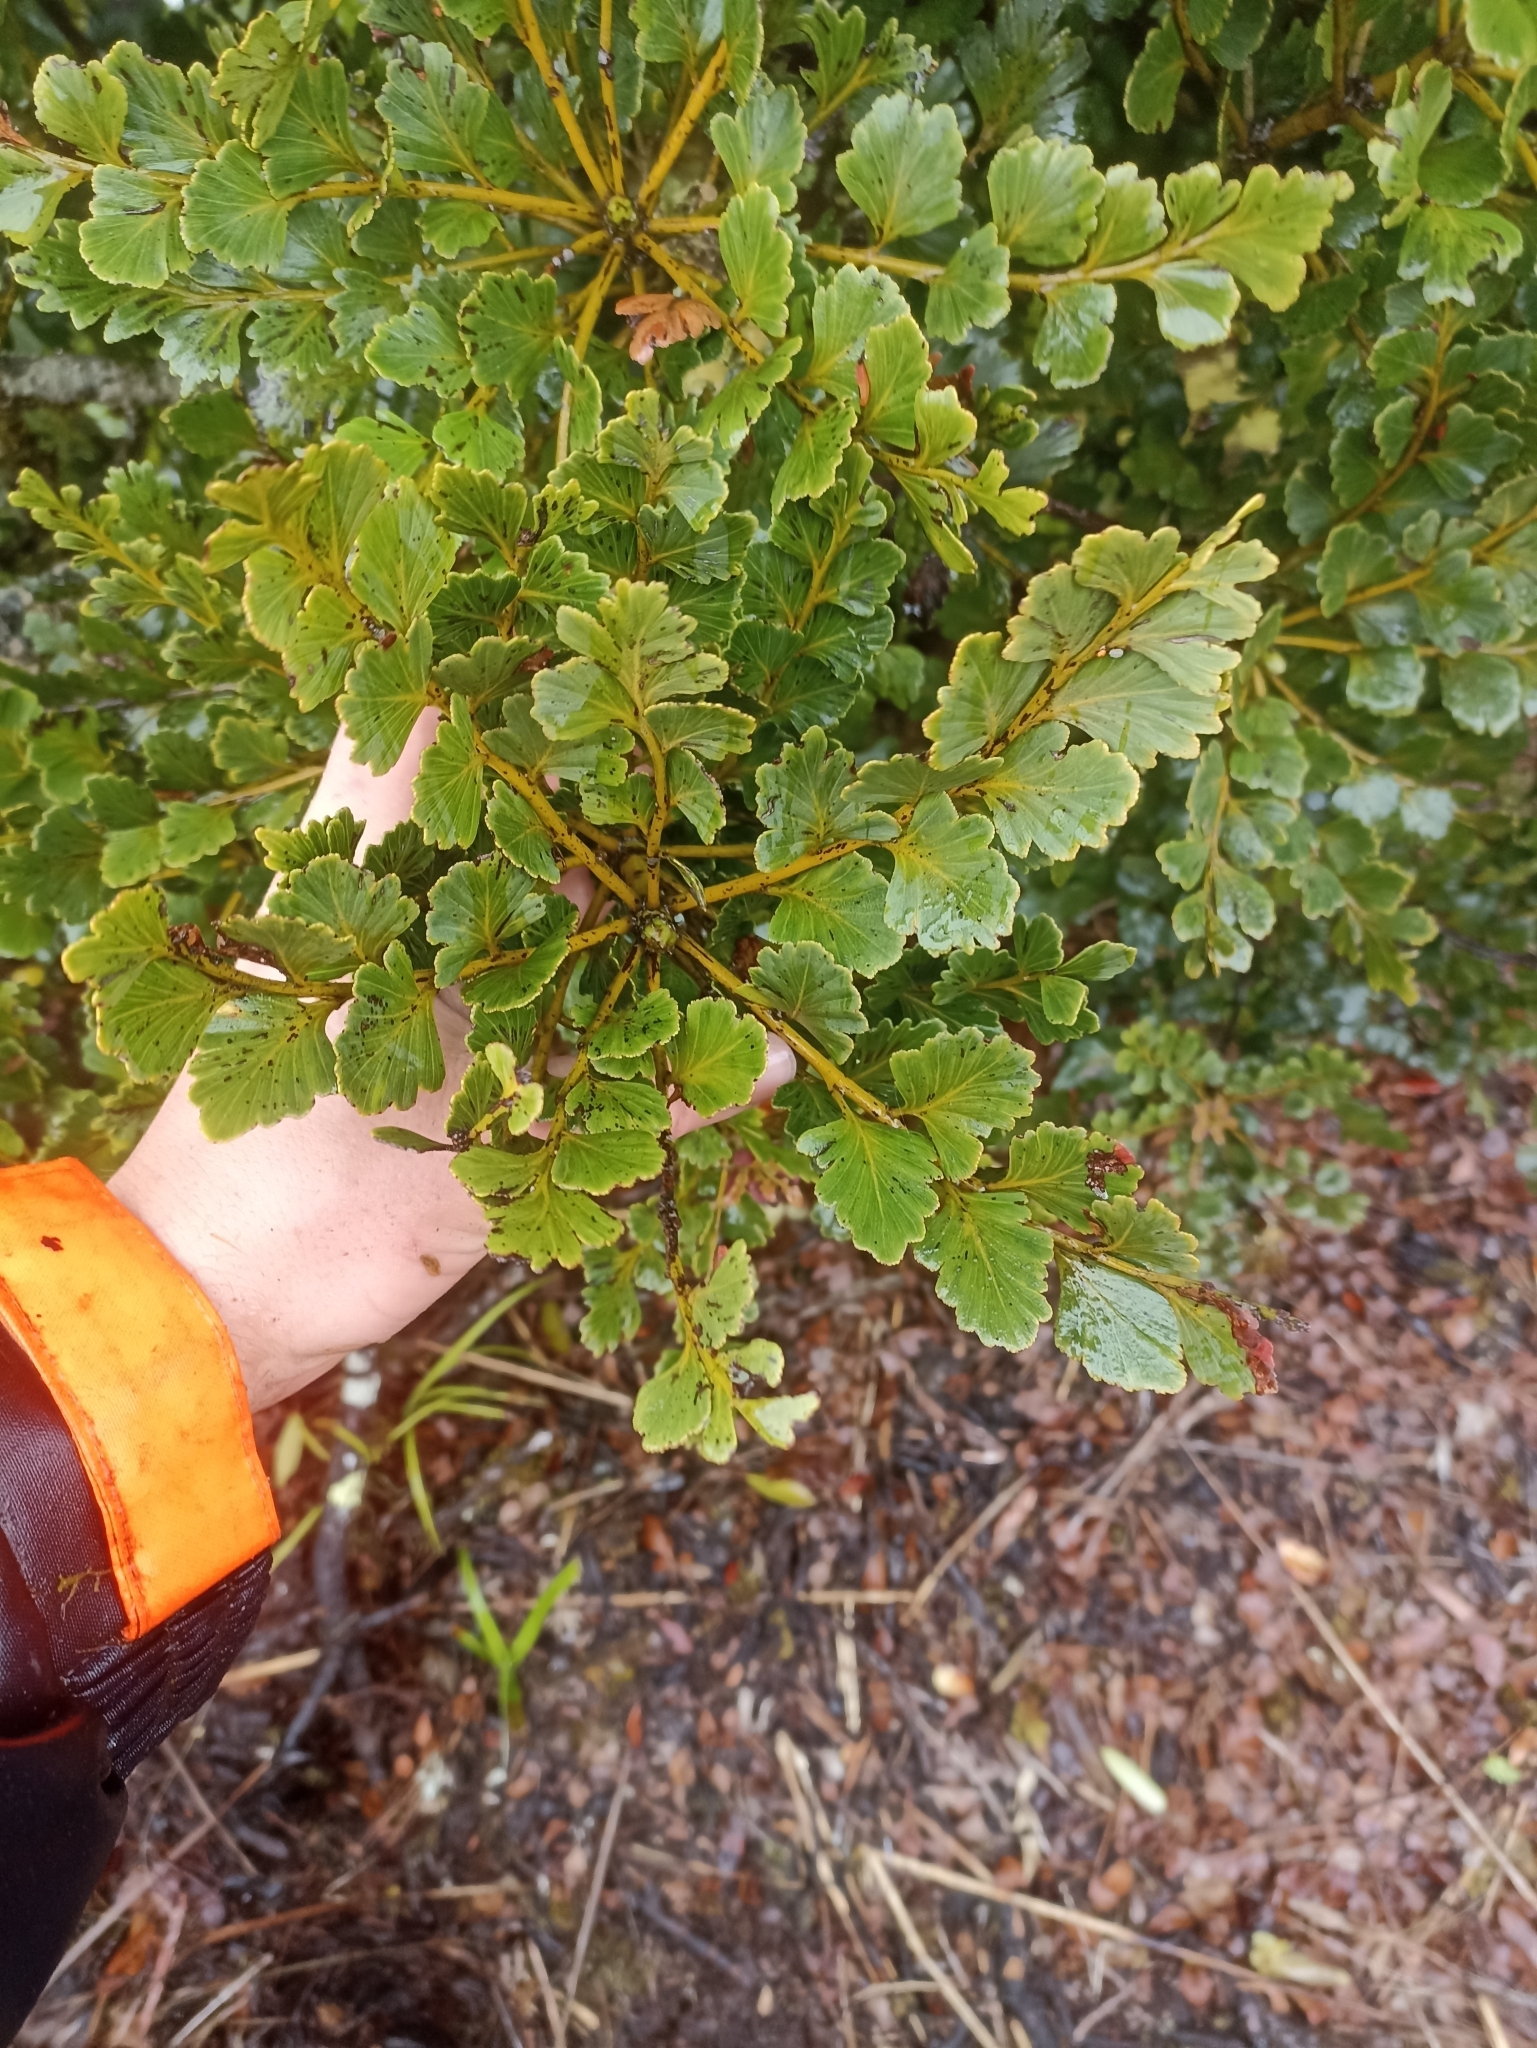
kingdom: Plantae
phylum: Tracheophyta
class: Pinopsida
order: Pinales
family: Phyllocladaceae
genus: Phyllocladus
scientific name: Phyllocladus toatoa
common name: Celery-top pine
